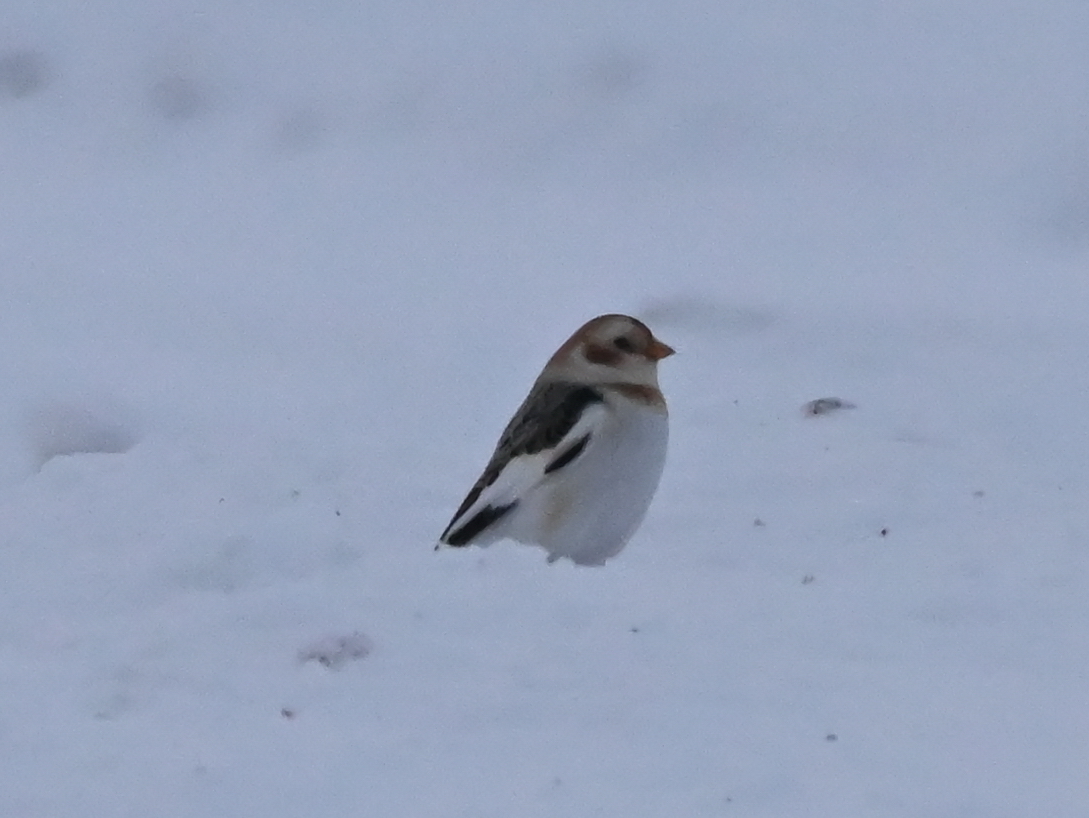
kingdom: Animalia
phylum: Chordata
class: Aves
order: Passeriformes
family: Calcariidae
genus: Plectrophenax
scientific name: Plectrophenax nivalis
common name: Snow bunting
